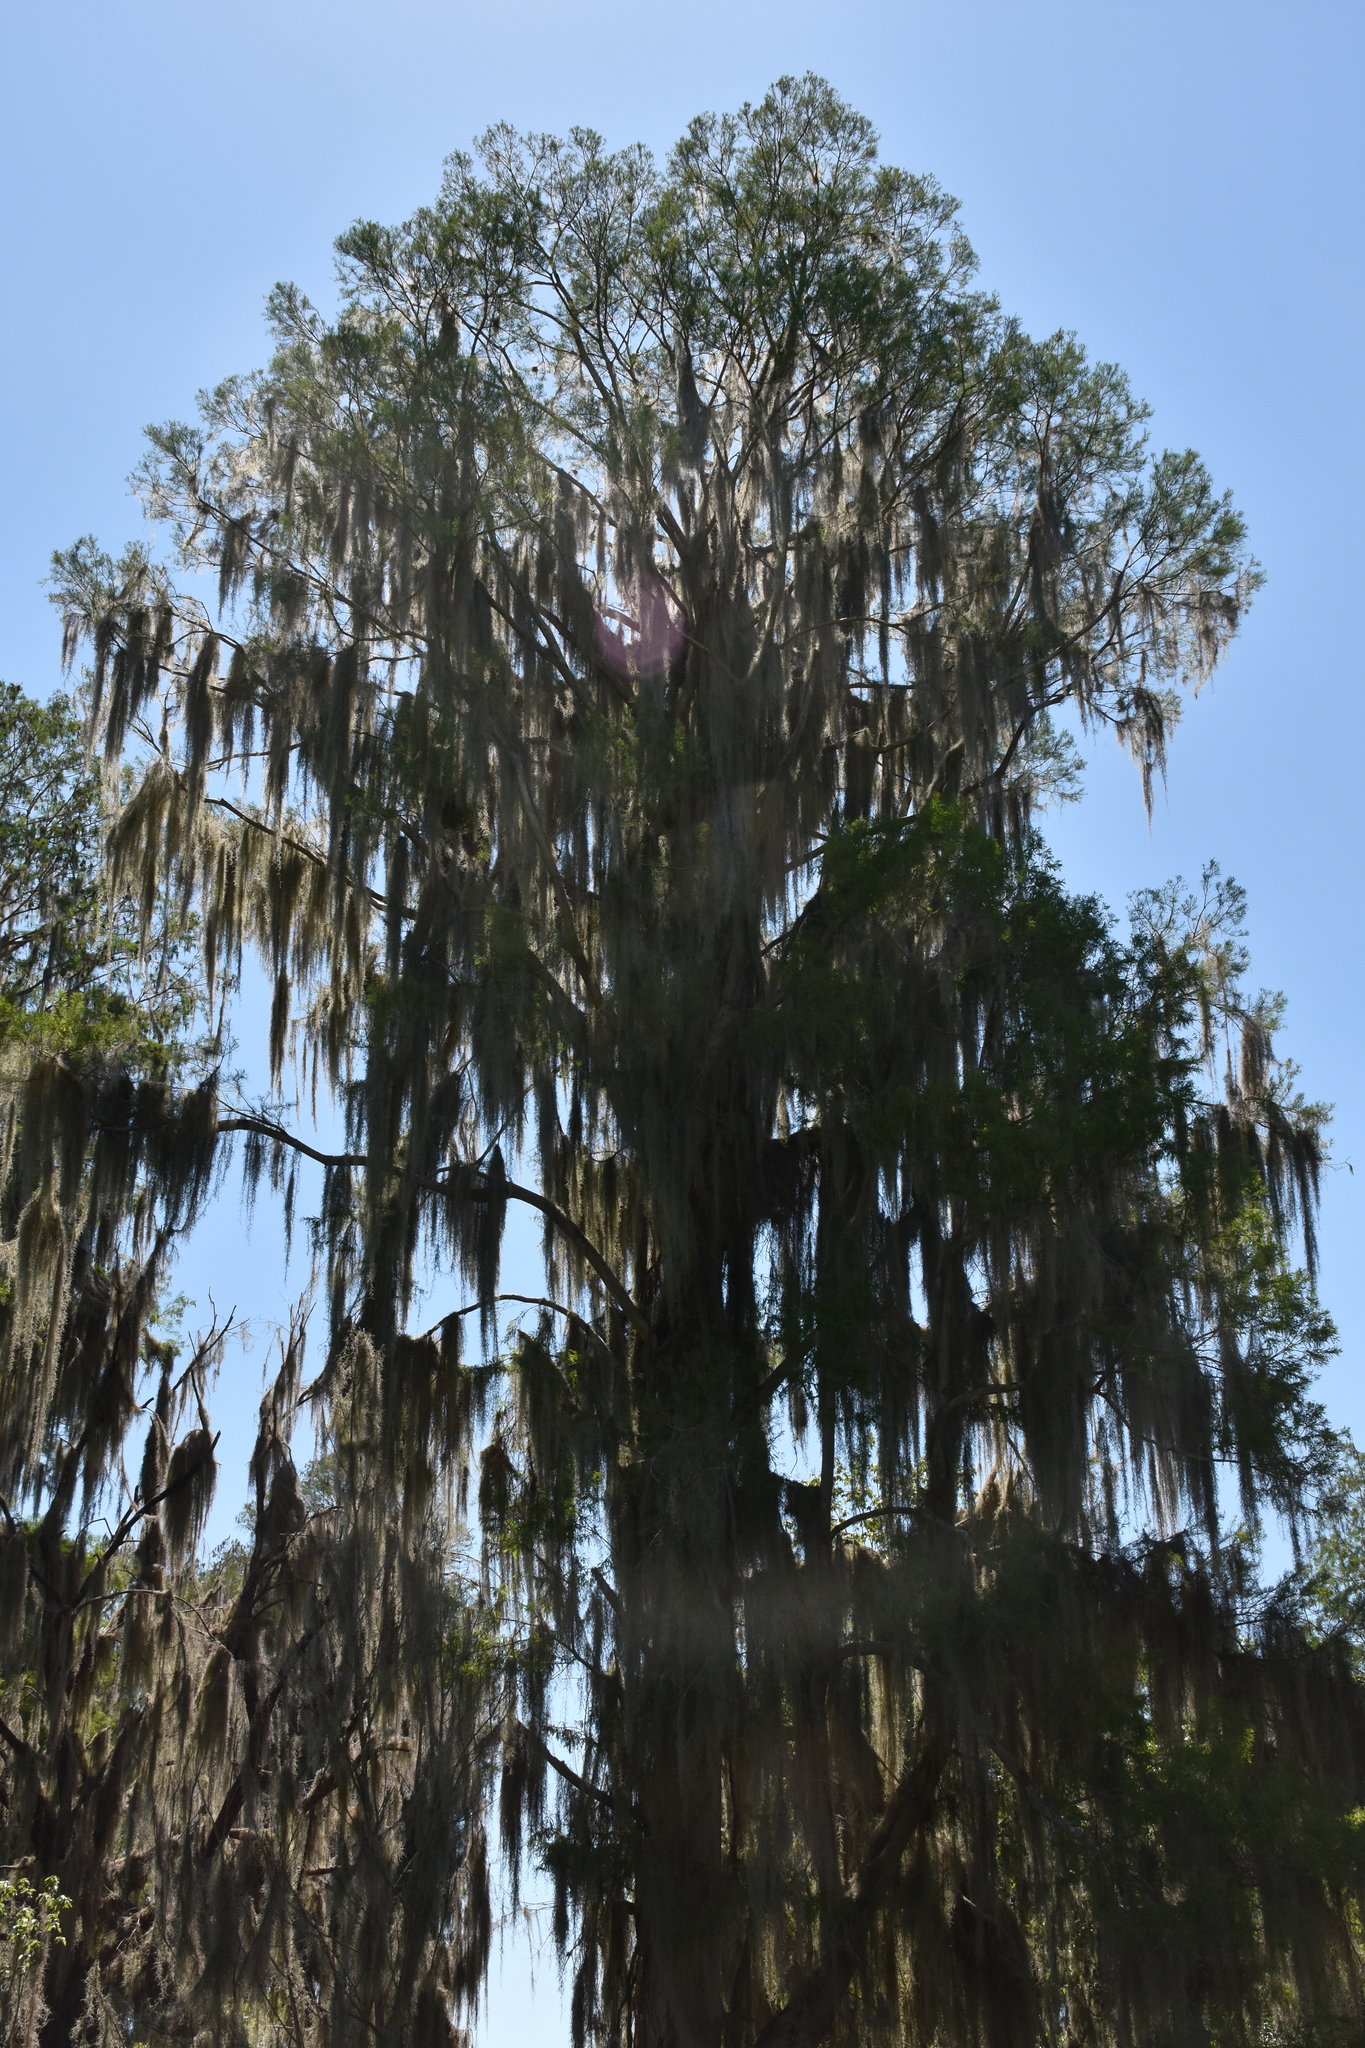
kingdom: Plantae
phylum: Tracheophyta
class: Liliopsida
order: Poales
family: Bromeliaceae
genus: Tillandsia
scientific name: Tillandsia usneoides
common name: Spanish moss
